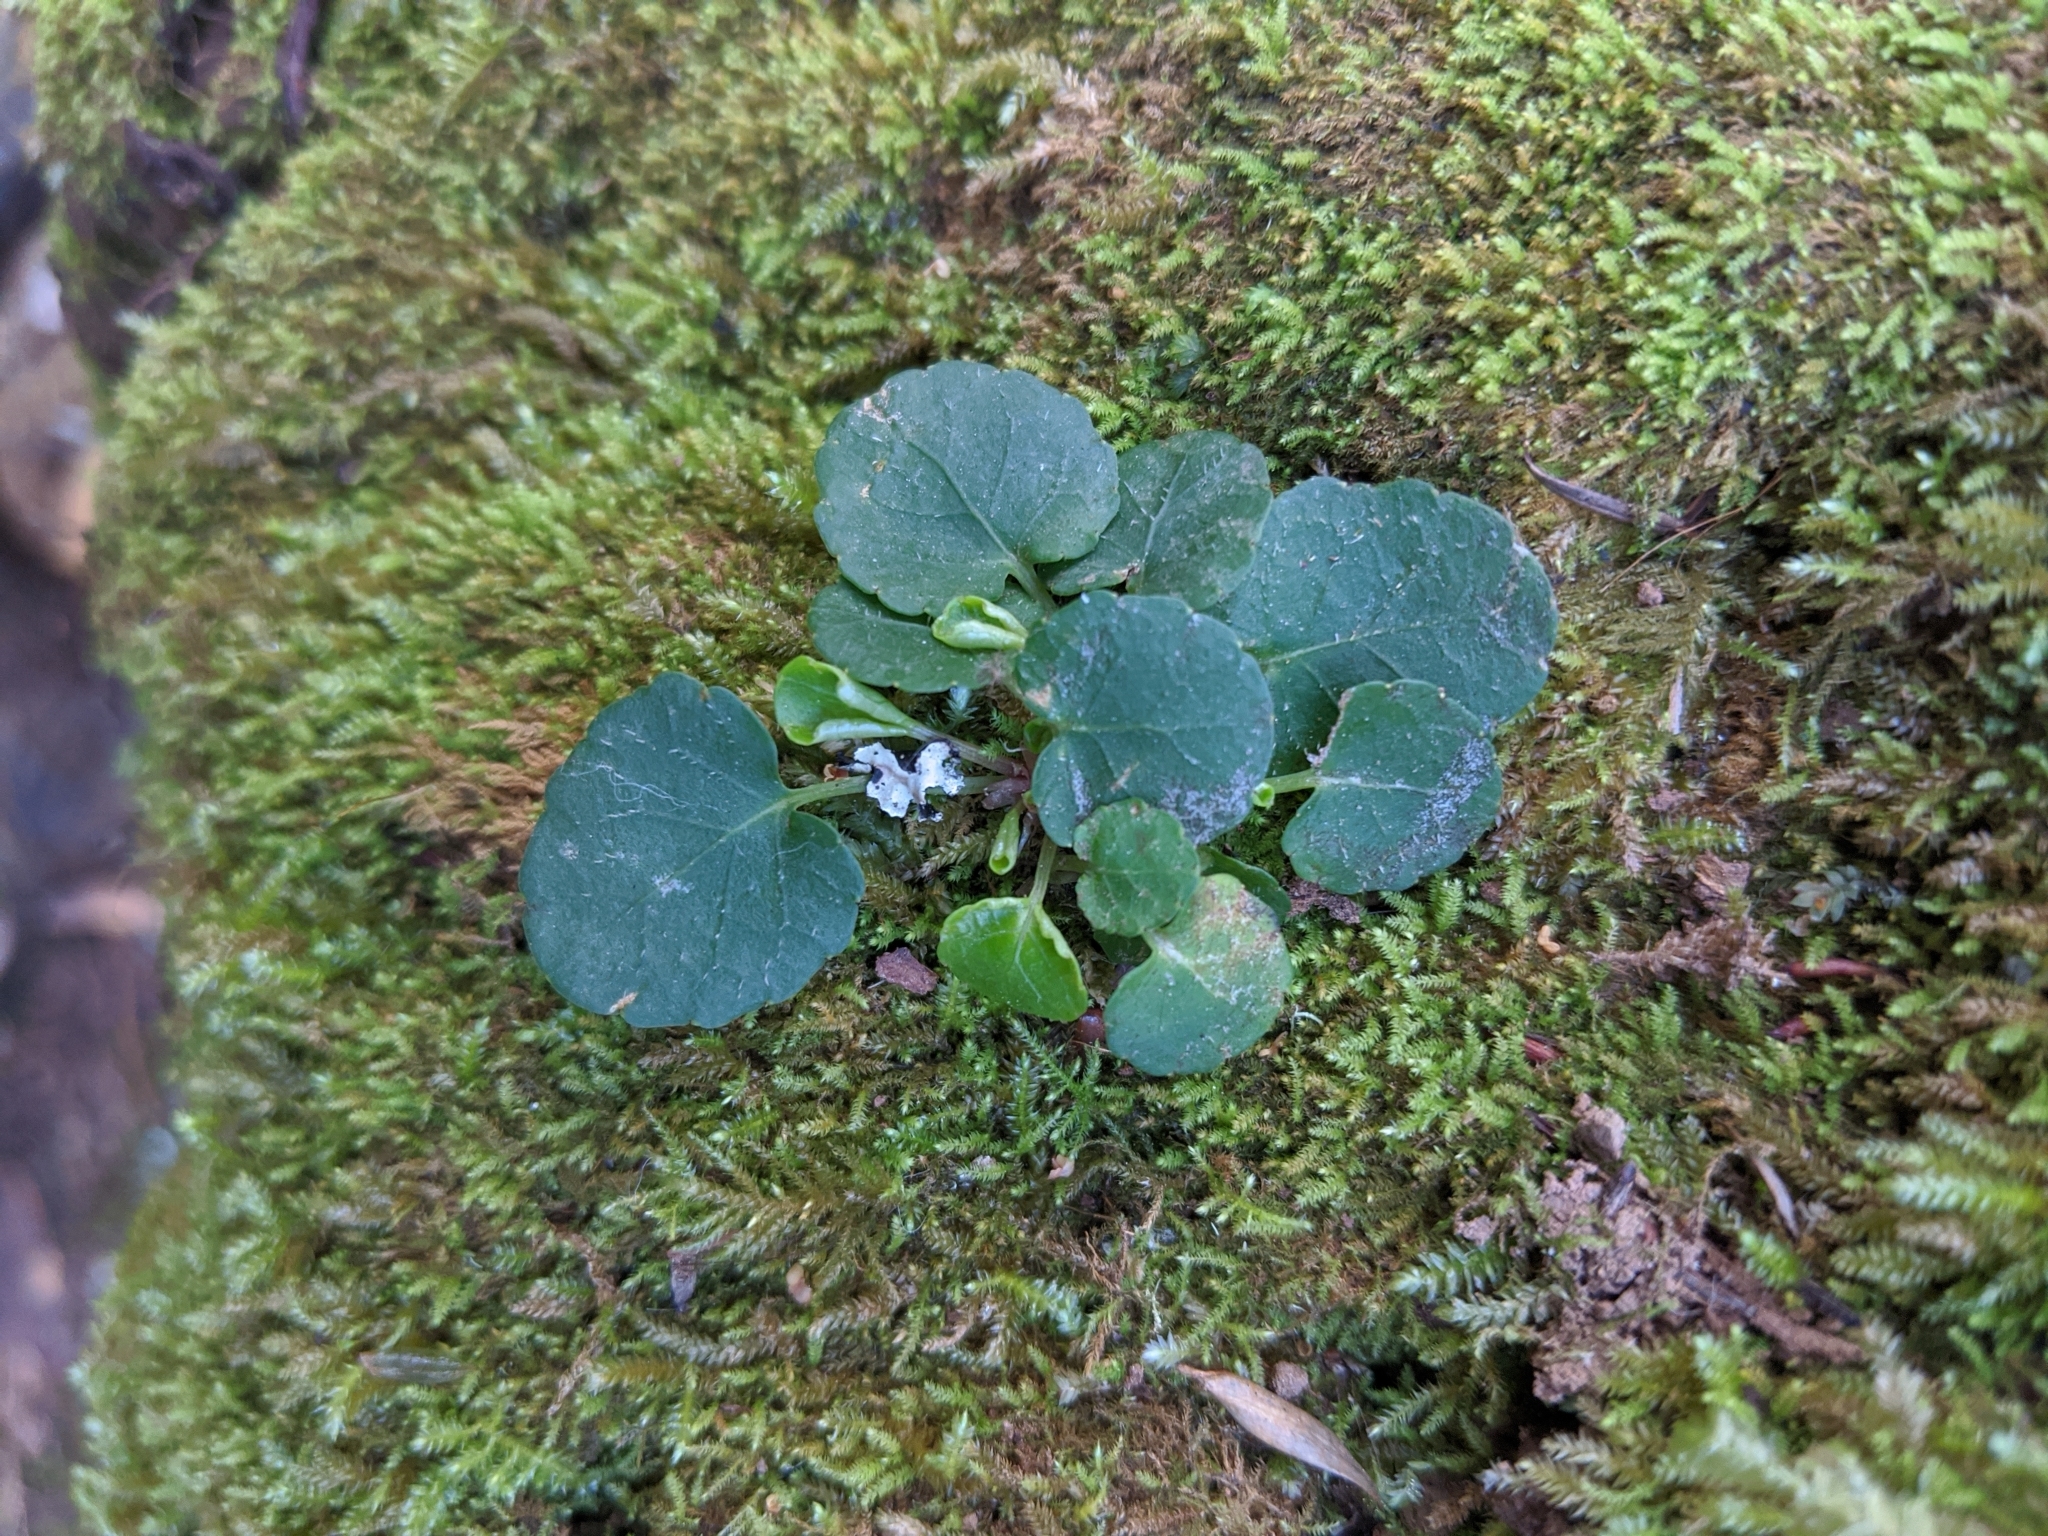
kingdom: Plantae
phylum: Tracheophyta
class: Magnoliopsida
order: Malpighiales
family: Violaceae
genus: Viola
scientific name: Viola sempervirens
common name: Evergreen violet
